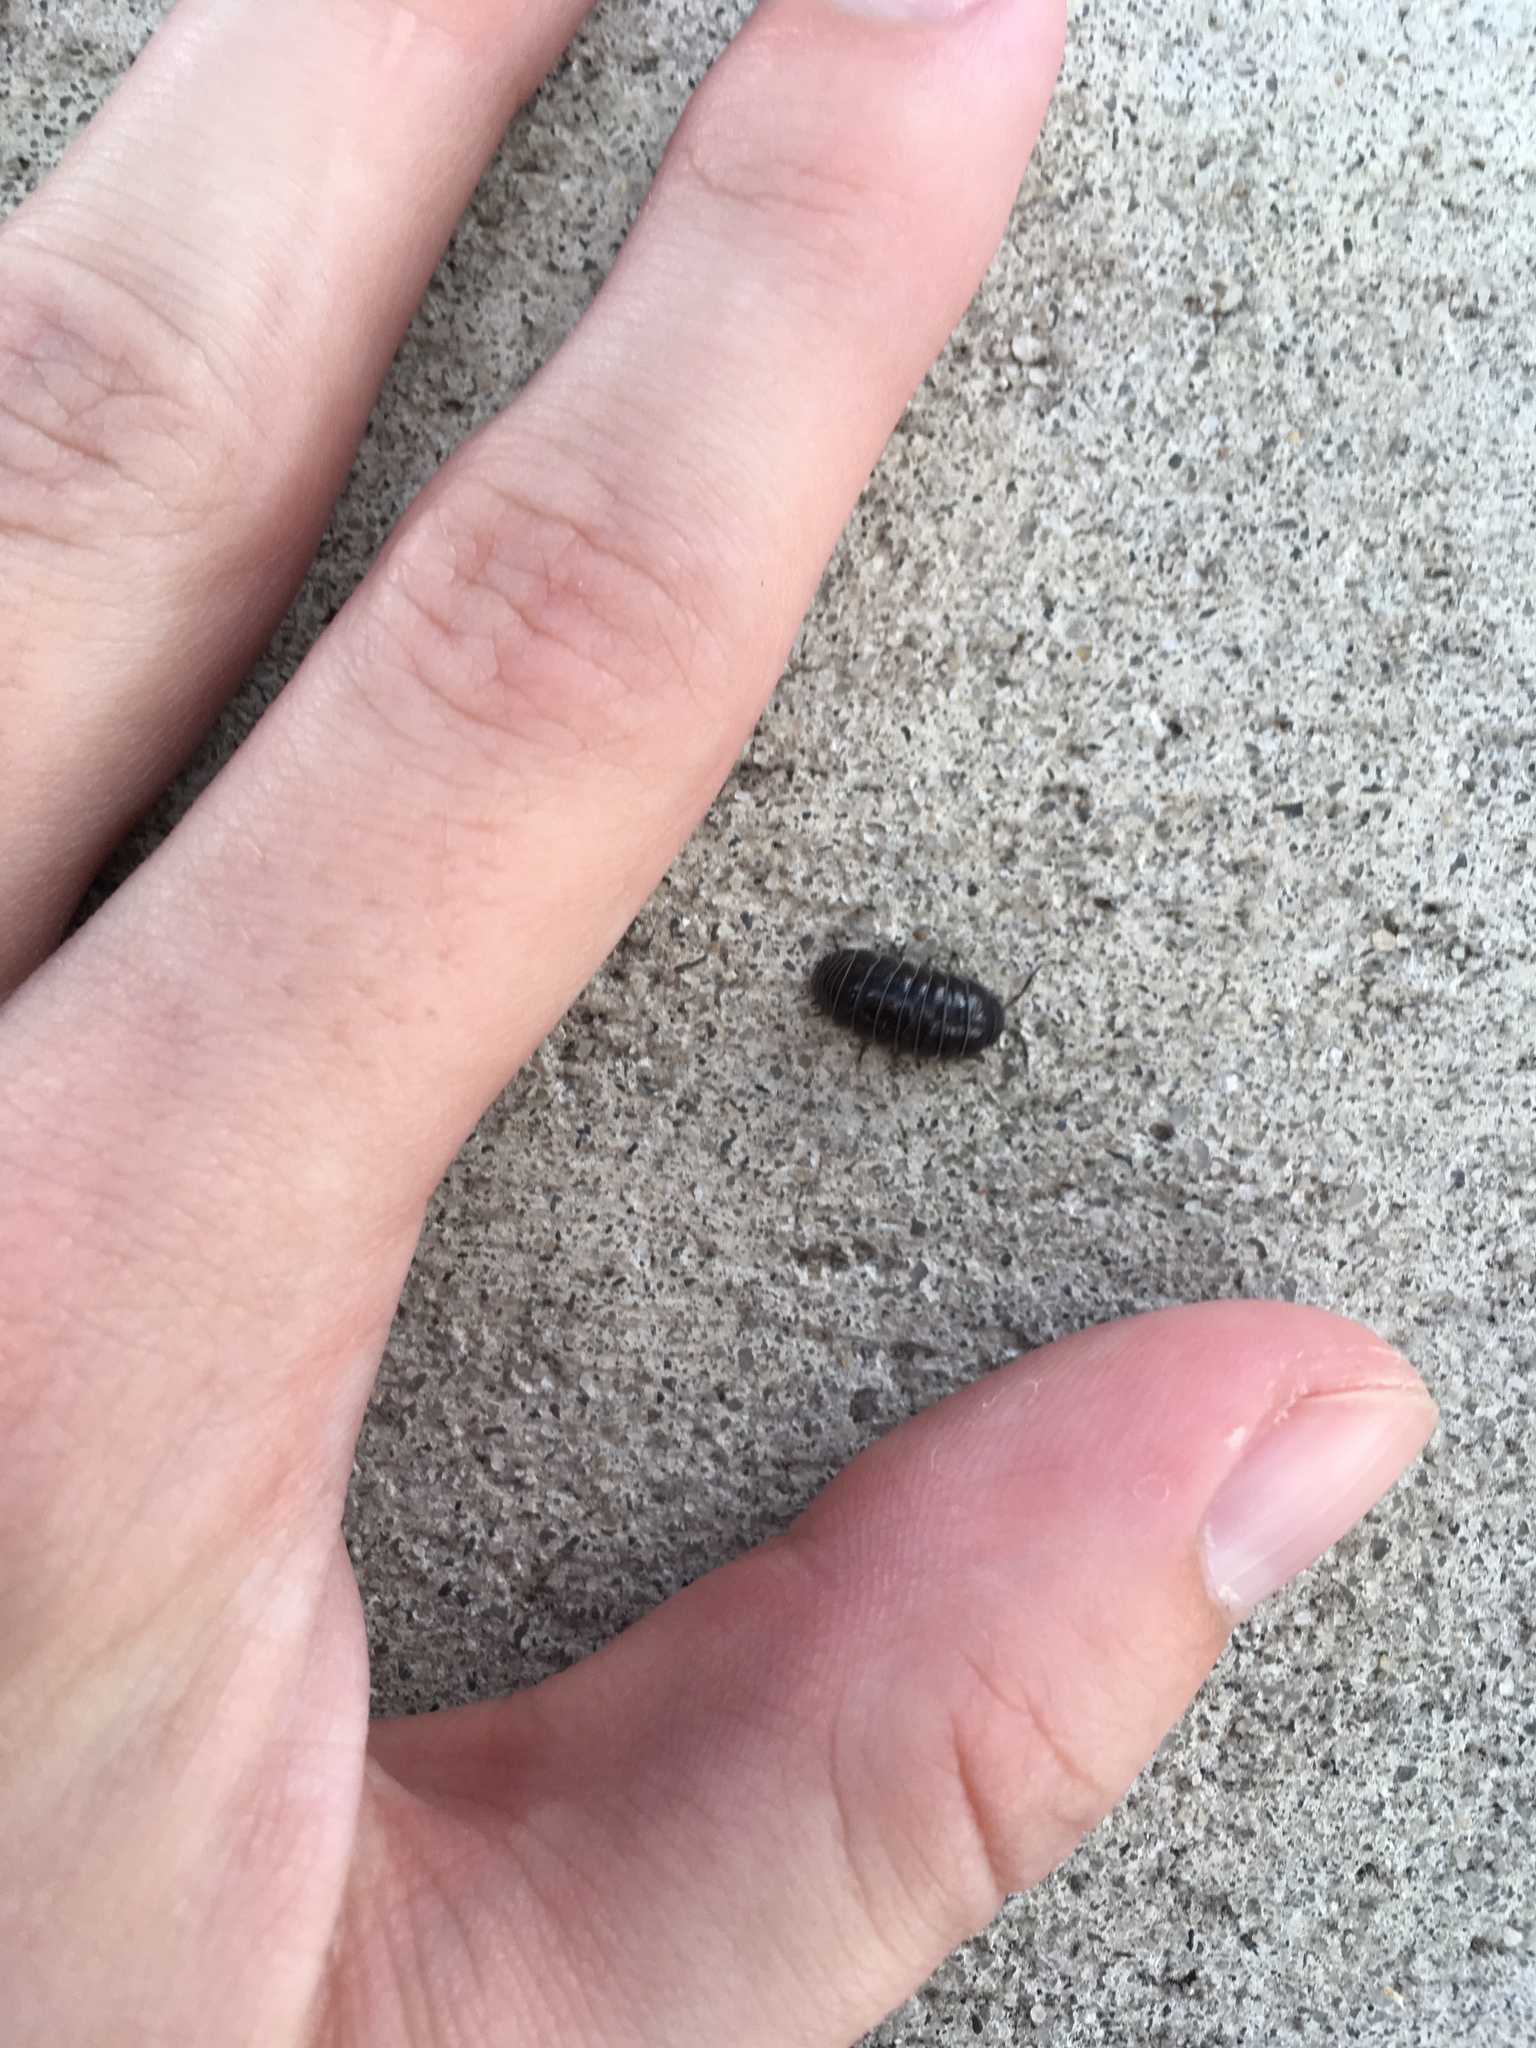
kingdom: Animalia
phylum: Arthropoda
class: Malacostraca
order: Isopoda
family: Armadillidiidae
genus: Armadillidium
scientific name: Armadillidium vulgare
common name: Common pill woodlouse
